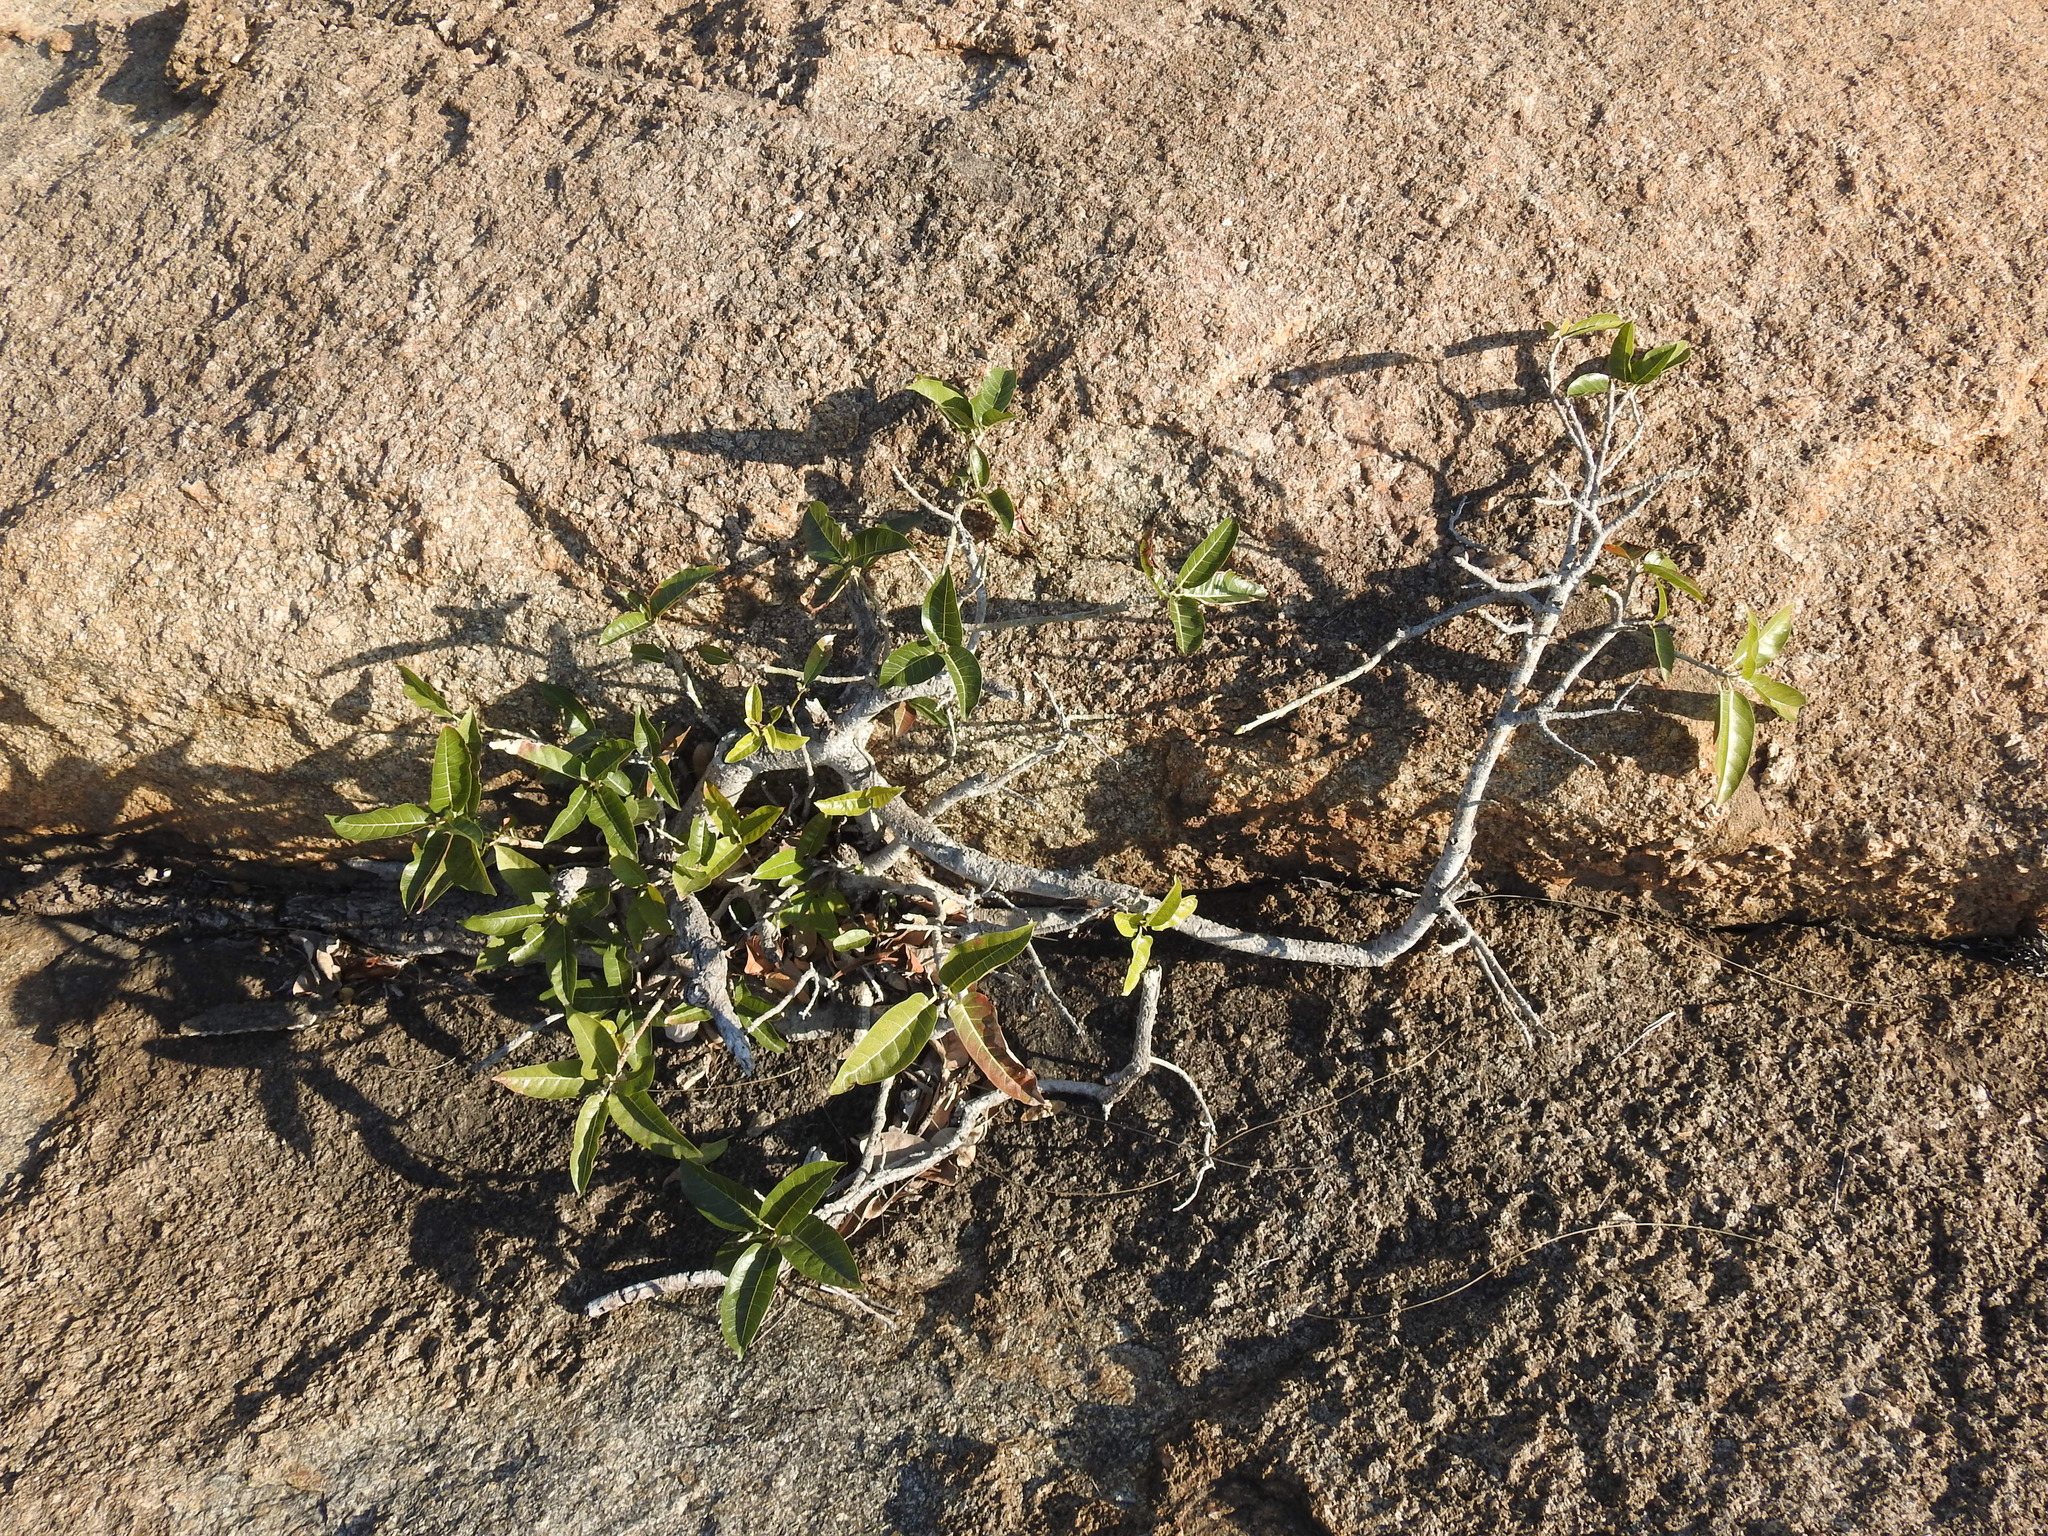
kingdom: Plantae
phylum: Tracheophyta
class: Magnoliopsida
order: Rosales
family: Moraceae
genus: Ficus
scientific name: Ficus ingens
